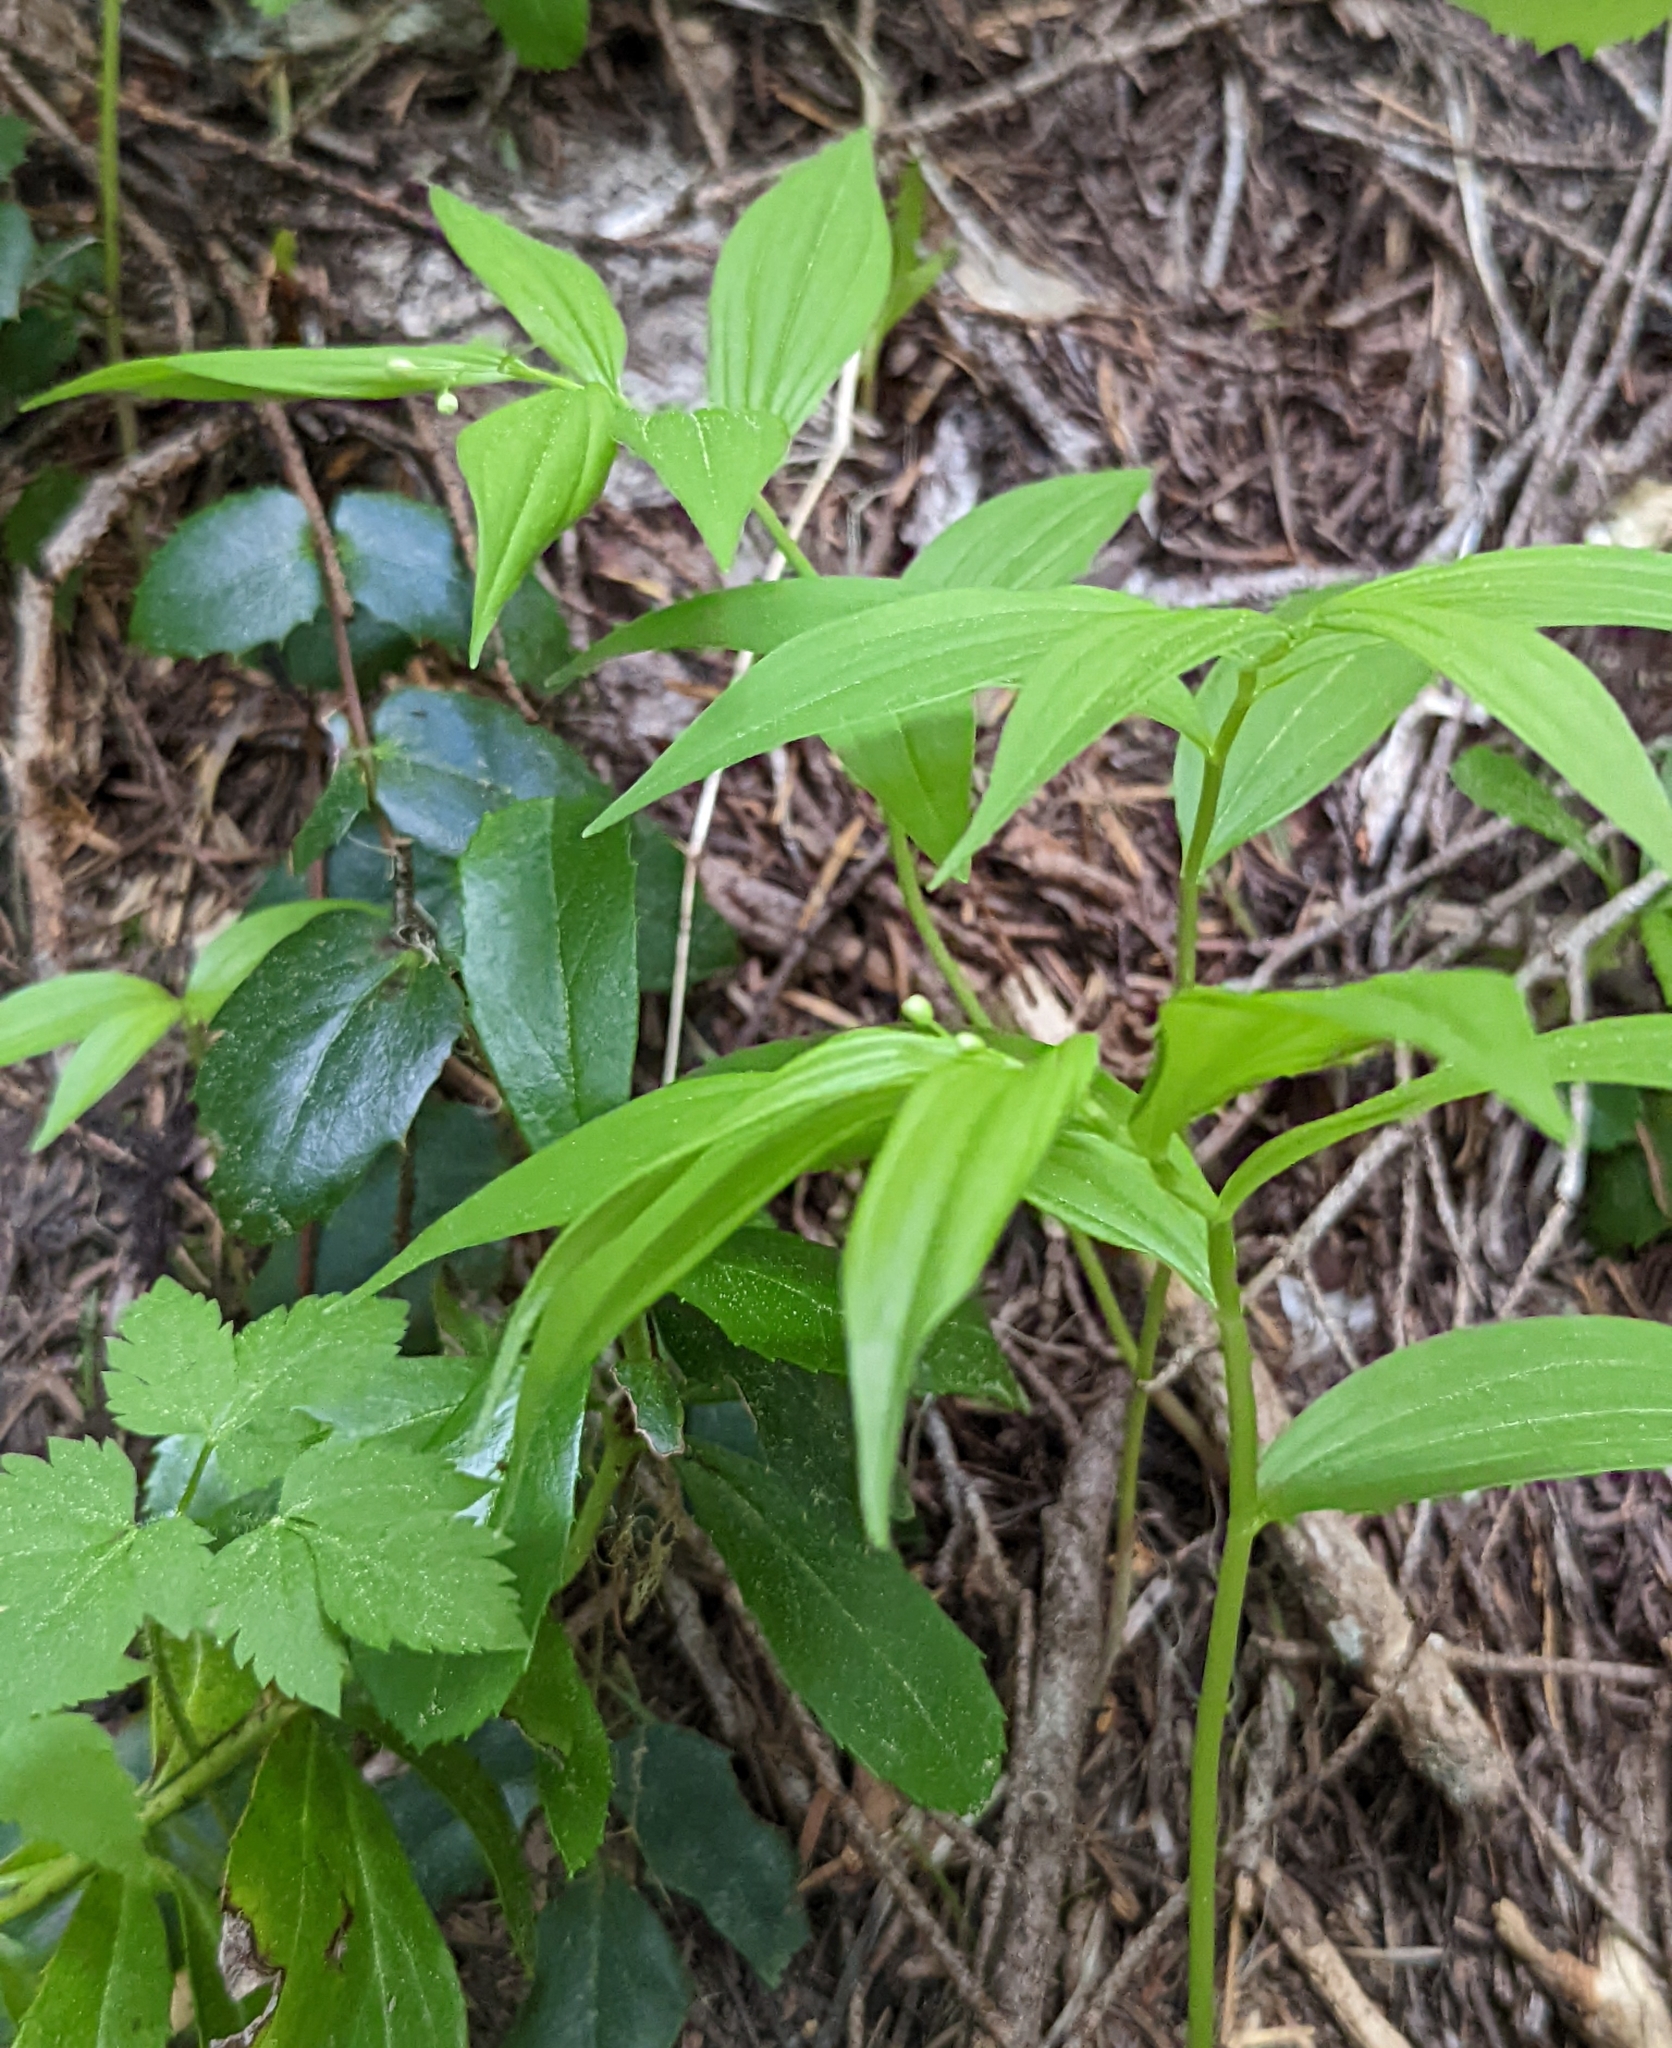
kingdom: Plantae
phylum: Tracheophyta
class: Liliopsida
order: Asparagales
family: Asparagaceae
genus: Maianthemum
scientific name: Maianthemum stellatum
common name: Little false solomon's seal
